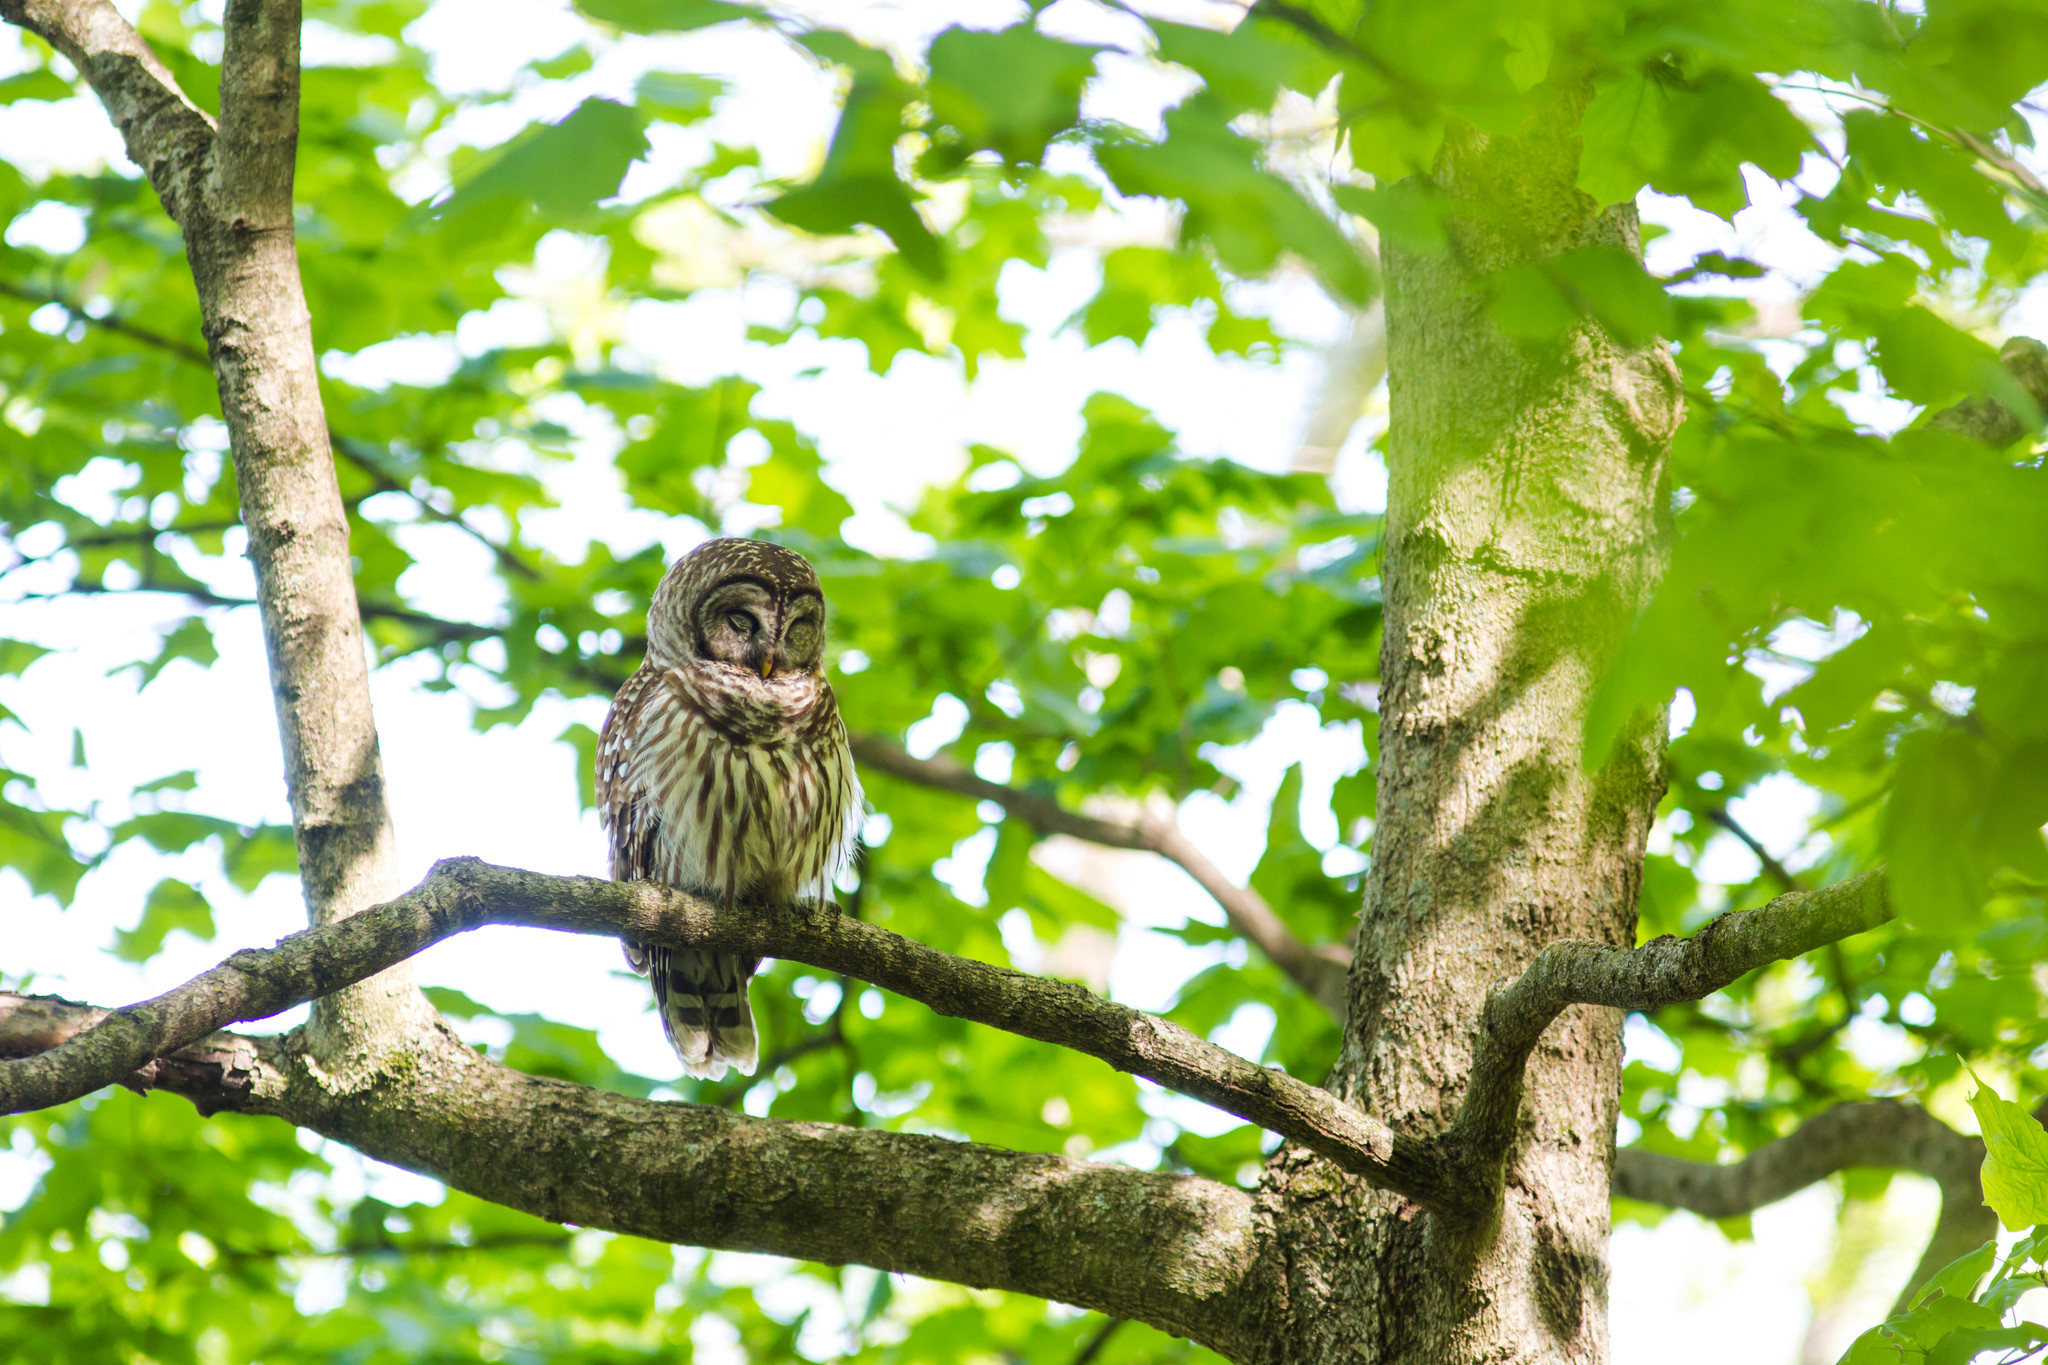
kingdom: Animalia
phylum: Chordata
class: Aves
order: Strigiformes
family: Strigidae
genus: Strix
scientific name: Strix varia
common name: Barred owl
